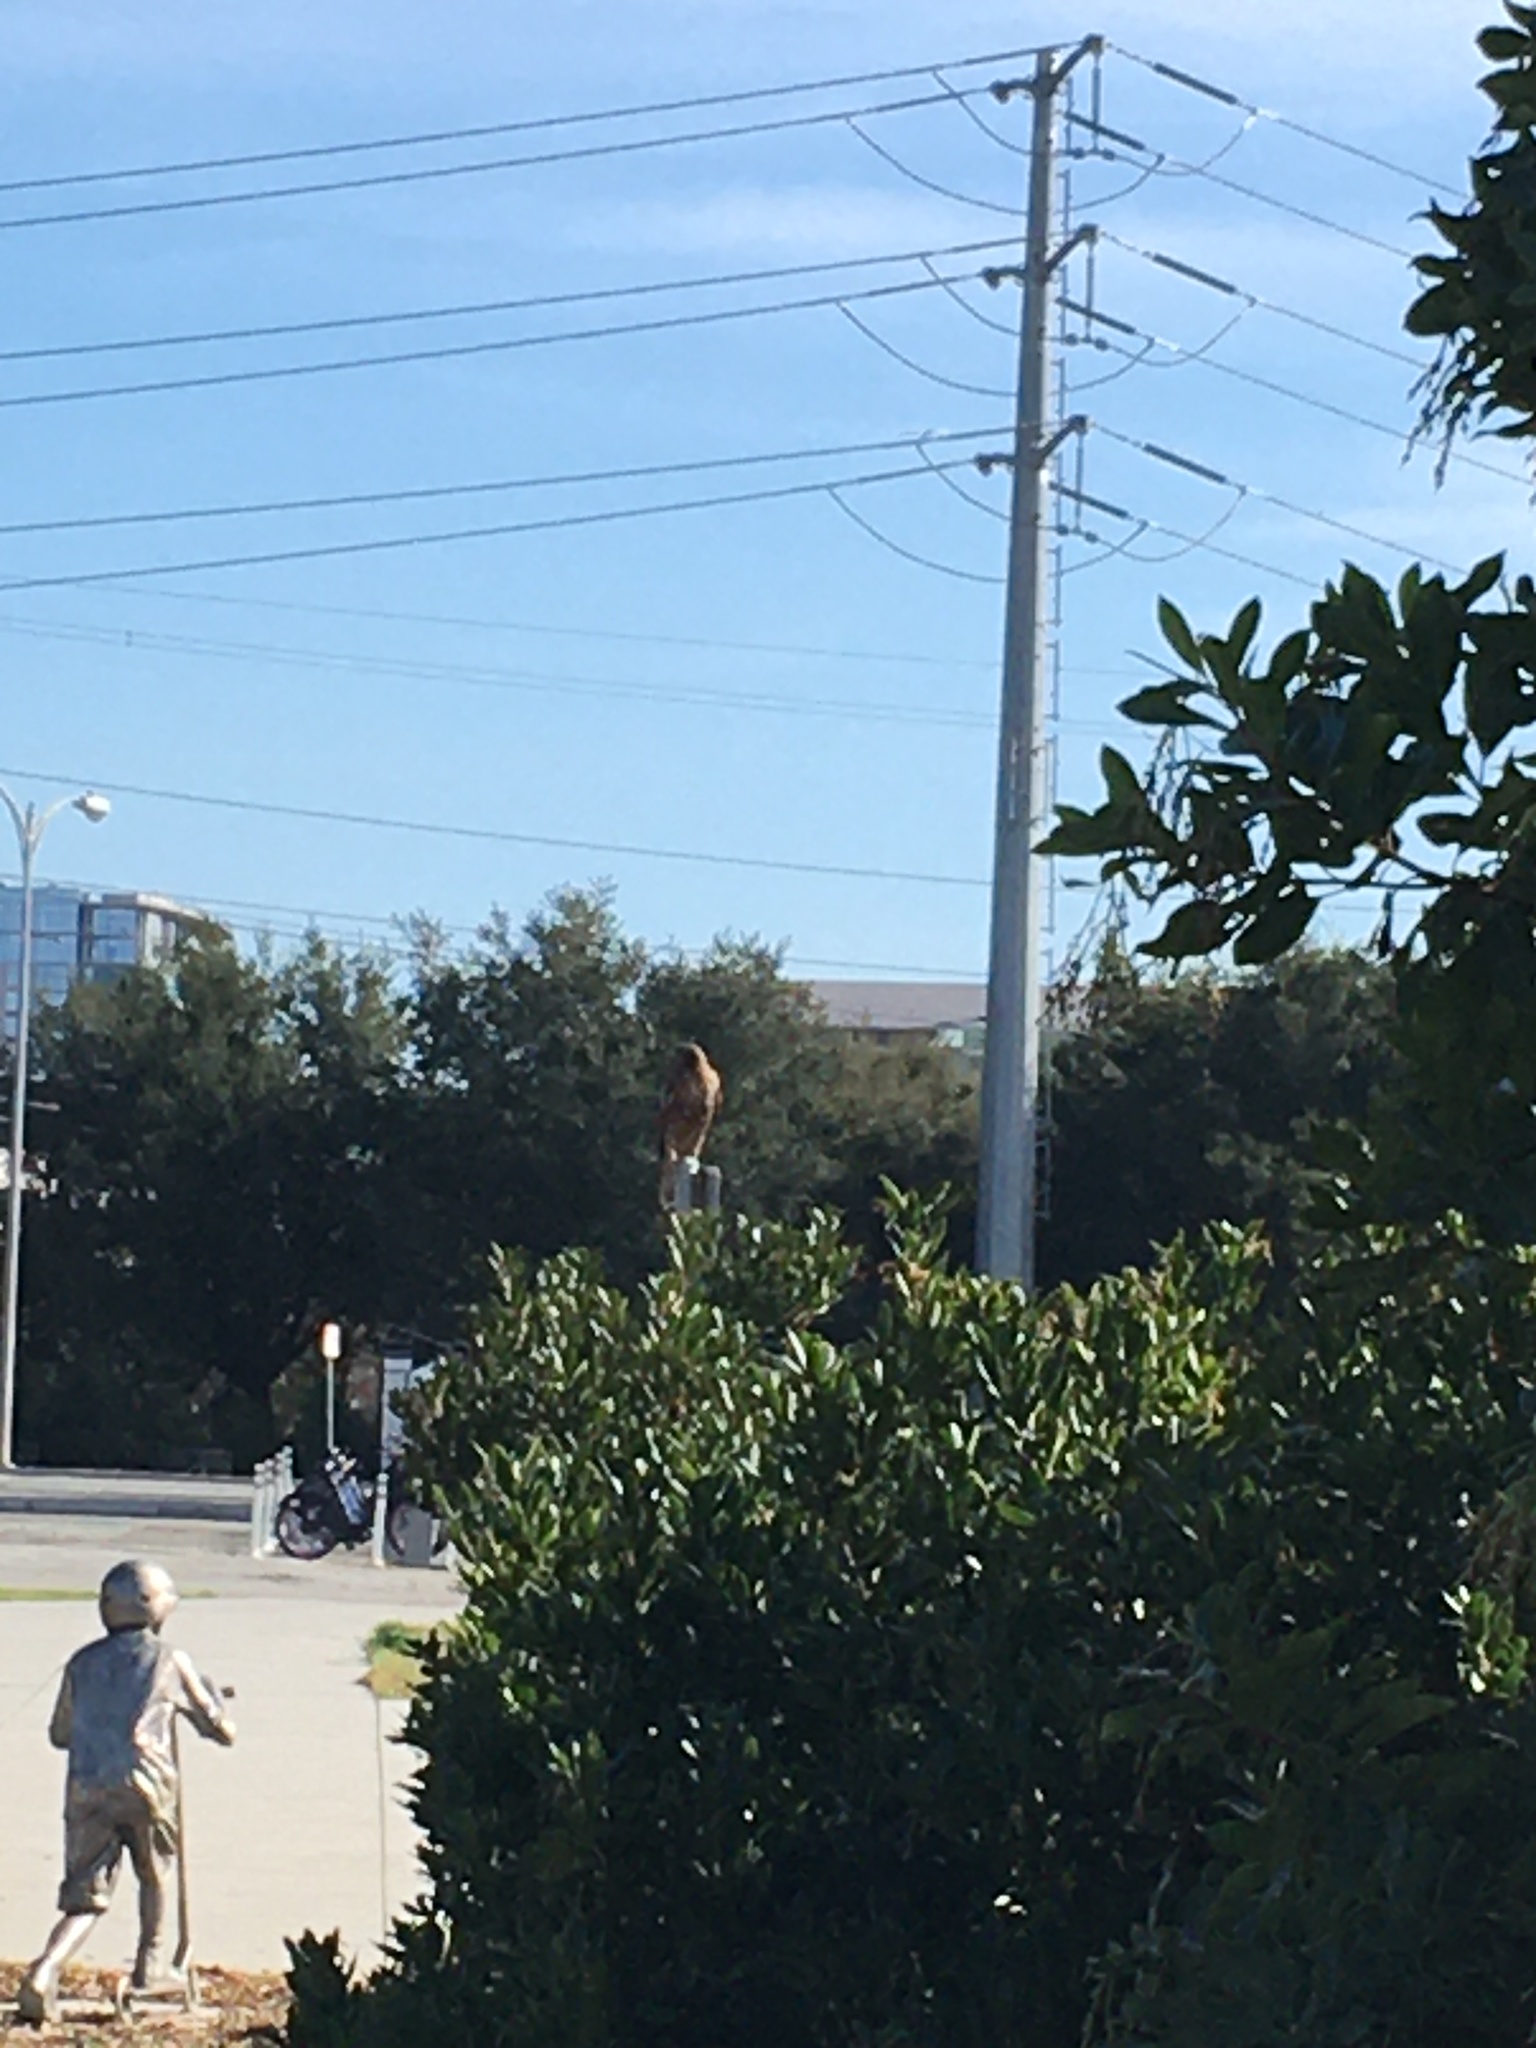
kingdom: Animalia
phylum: Chordata
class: Aves
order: Accipitriformes
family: Accipitridae
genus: Buteo
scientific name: Buteo lineatus
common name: Red-shouldered hawk
